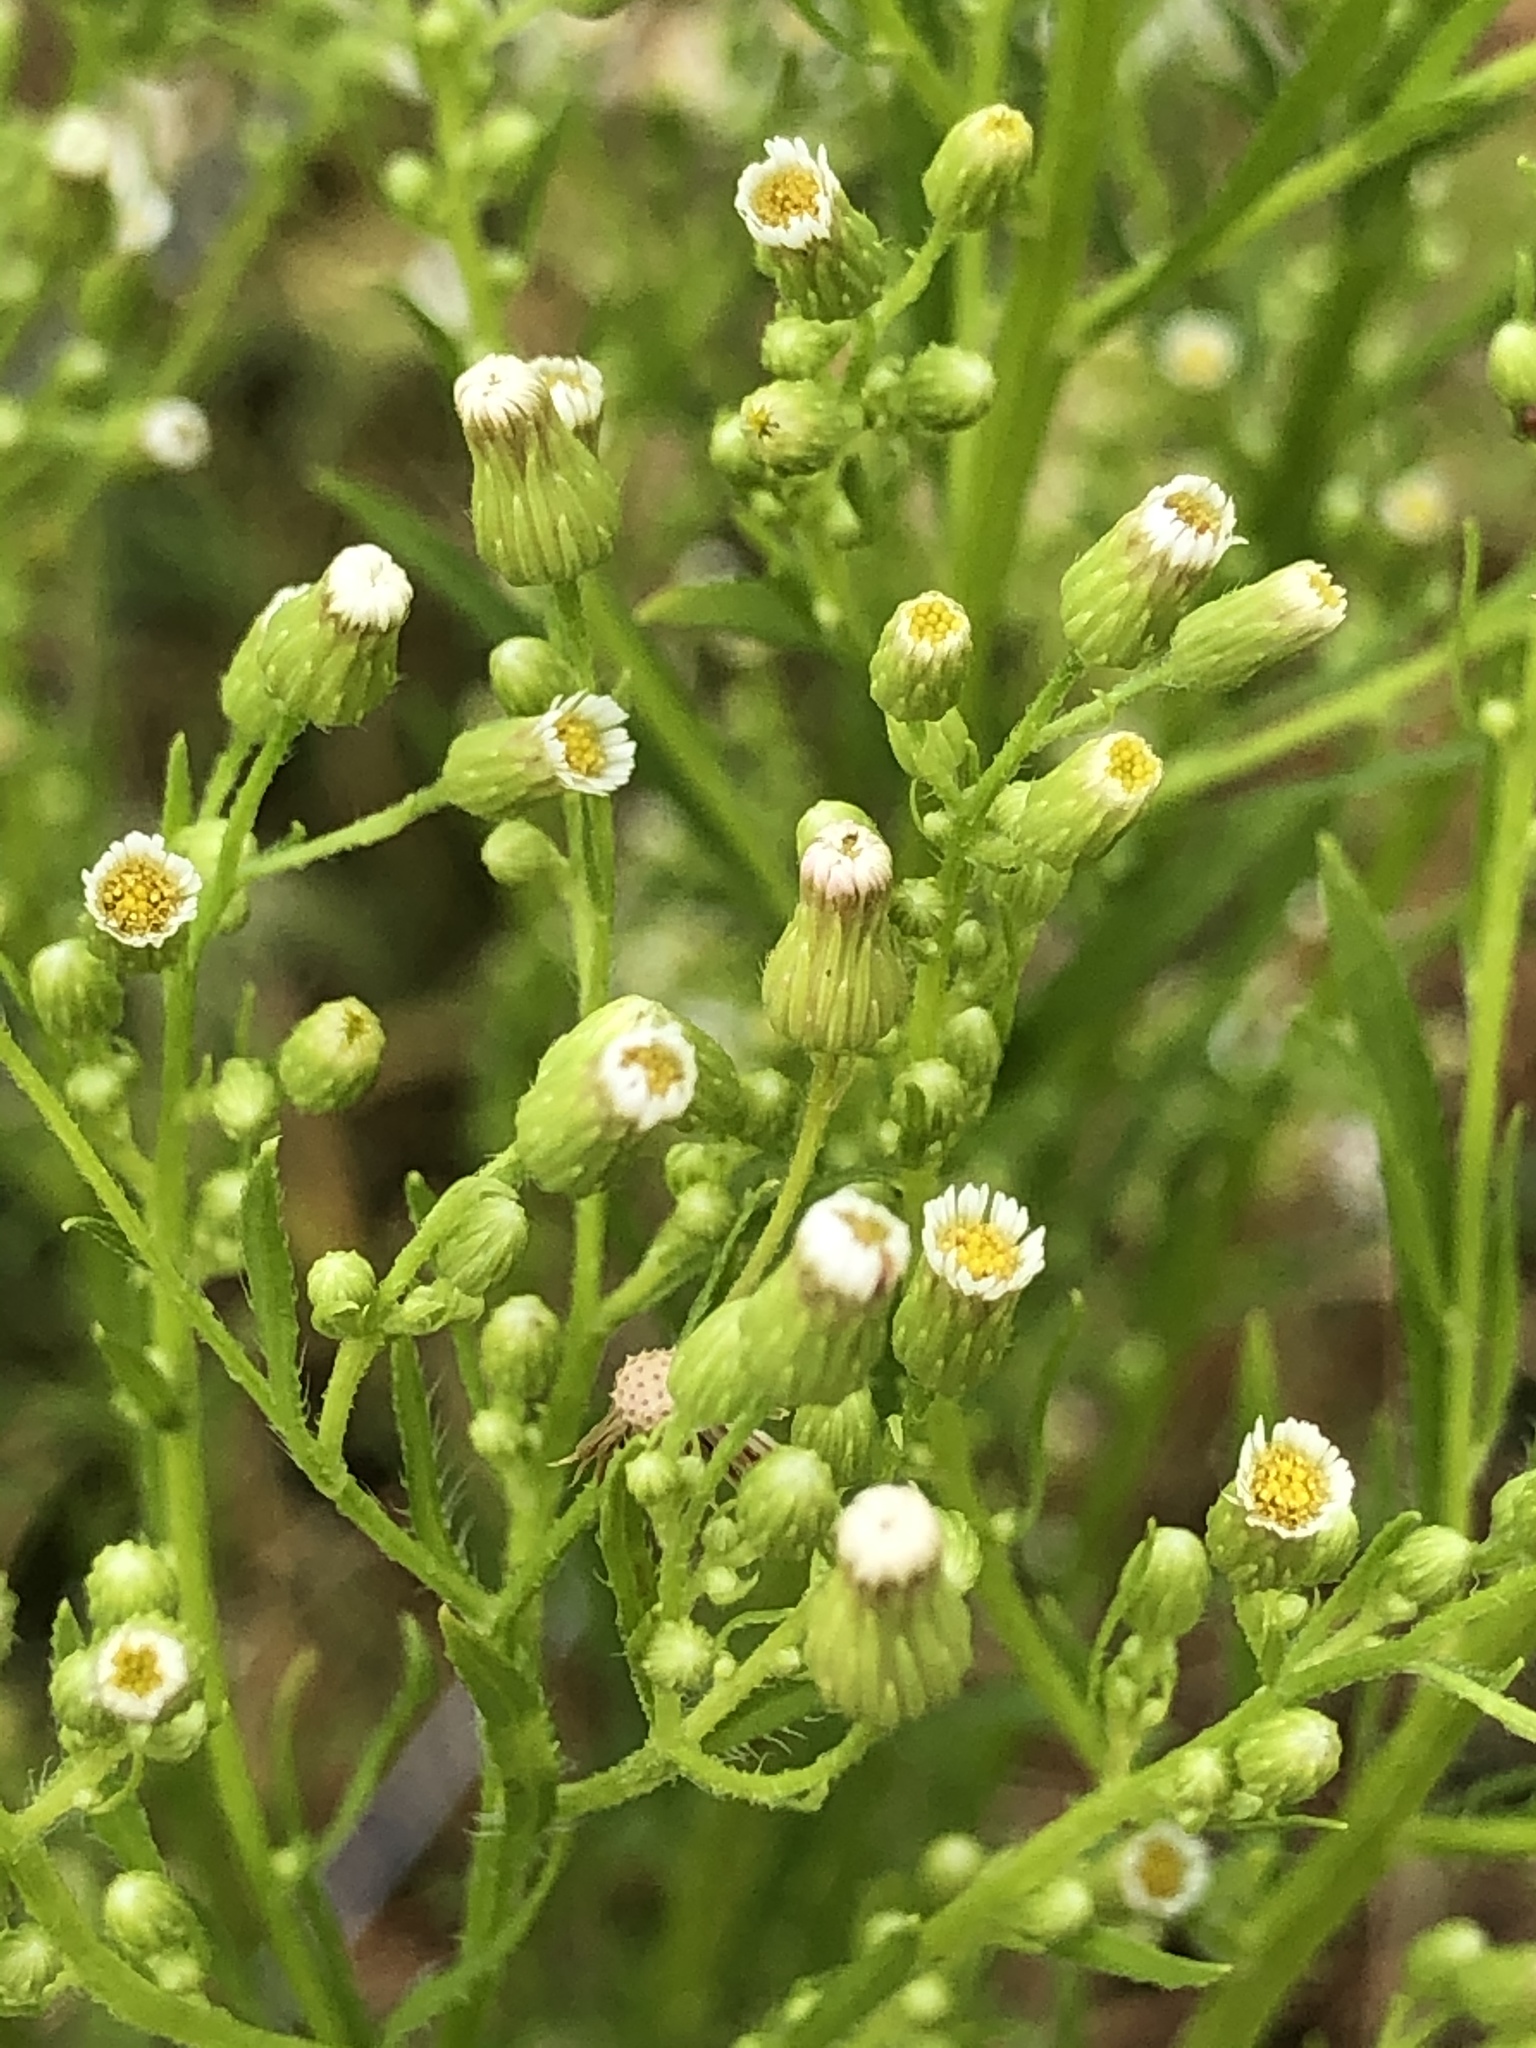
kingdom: Plantae
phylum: Tracheophyta
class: Magnoliopsida
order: Asterales
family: Asteraceae
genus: Erigeron
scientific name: Erigeron canadensis
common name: Canadian fleabane
